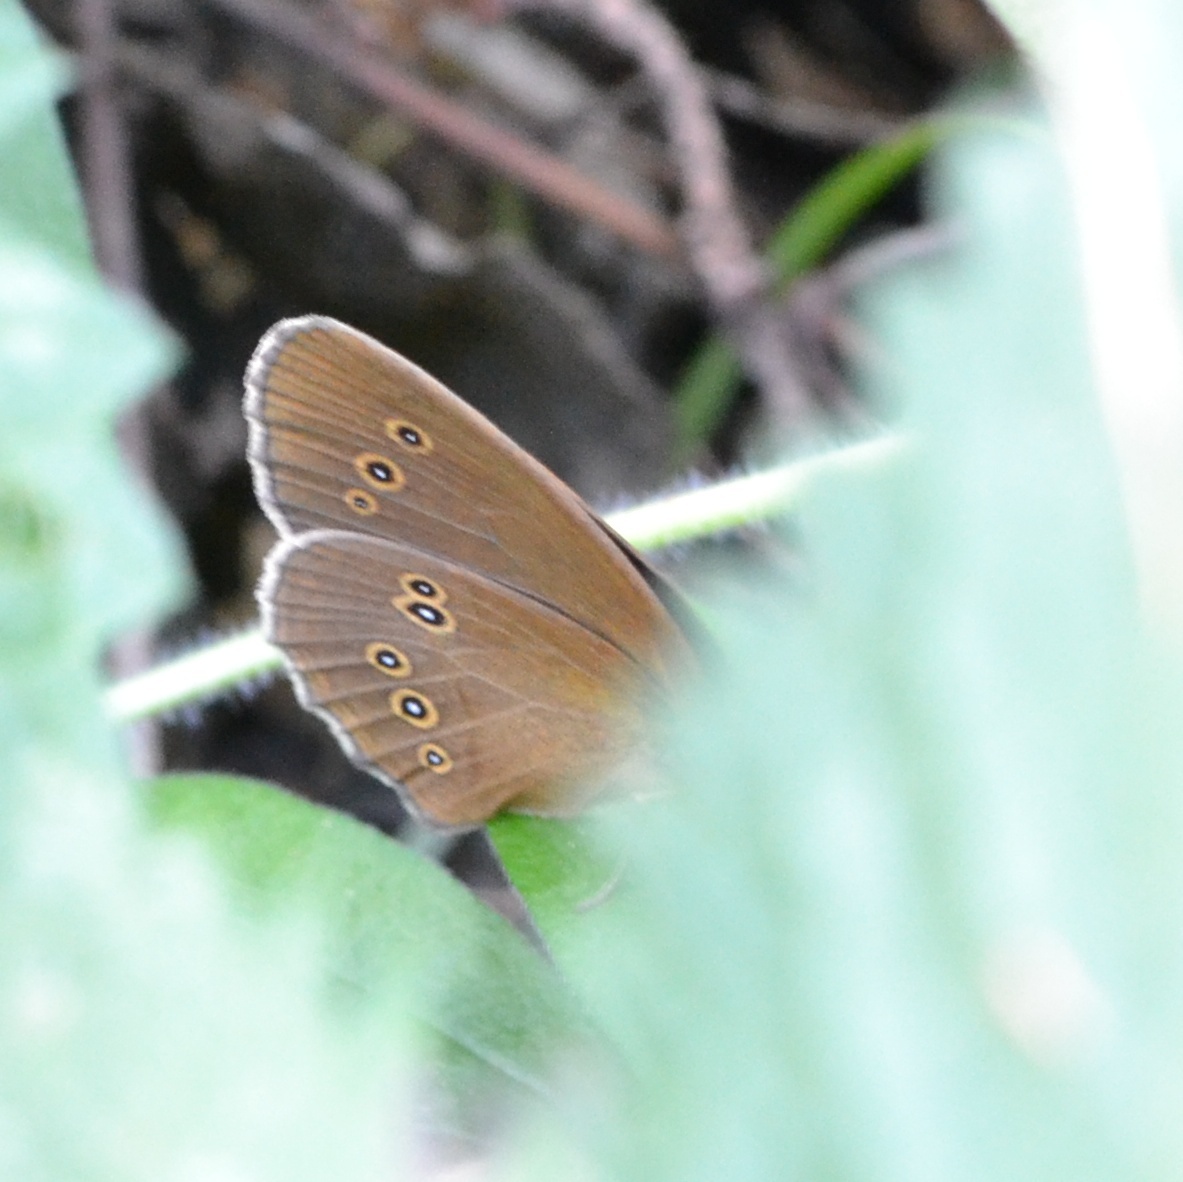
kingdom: Animalia
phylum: Arthropoda
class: Insecta
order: Lepidoptera
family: Nymphalidae
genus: Aphantopus
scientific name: Aphantopus hyperantus
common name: Ringlet
